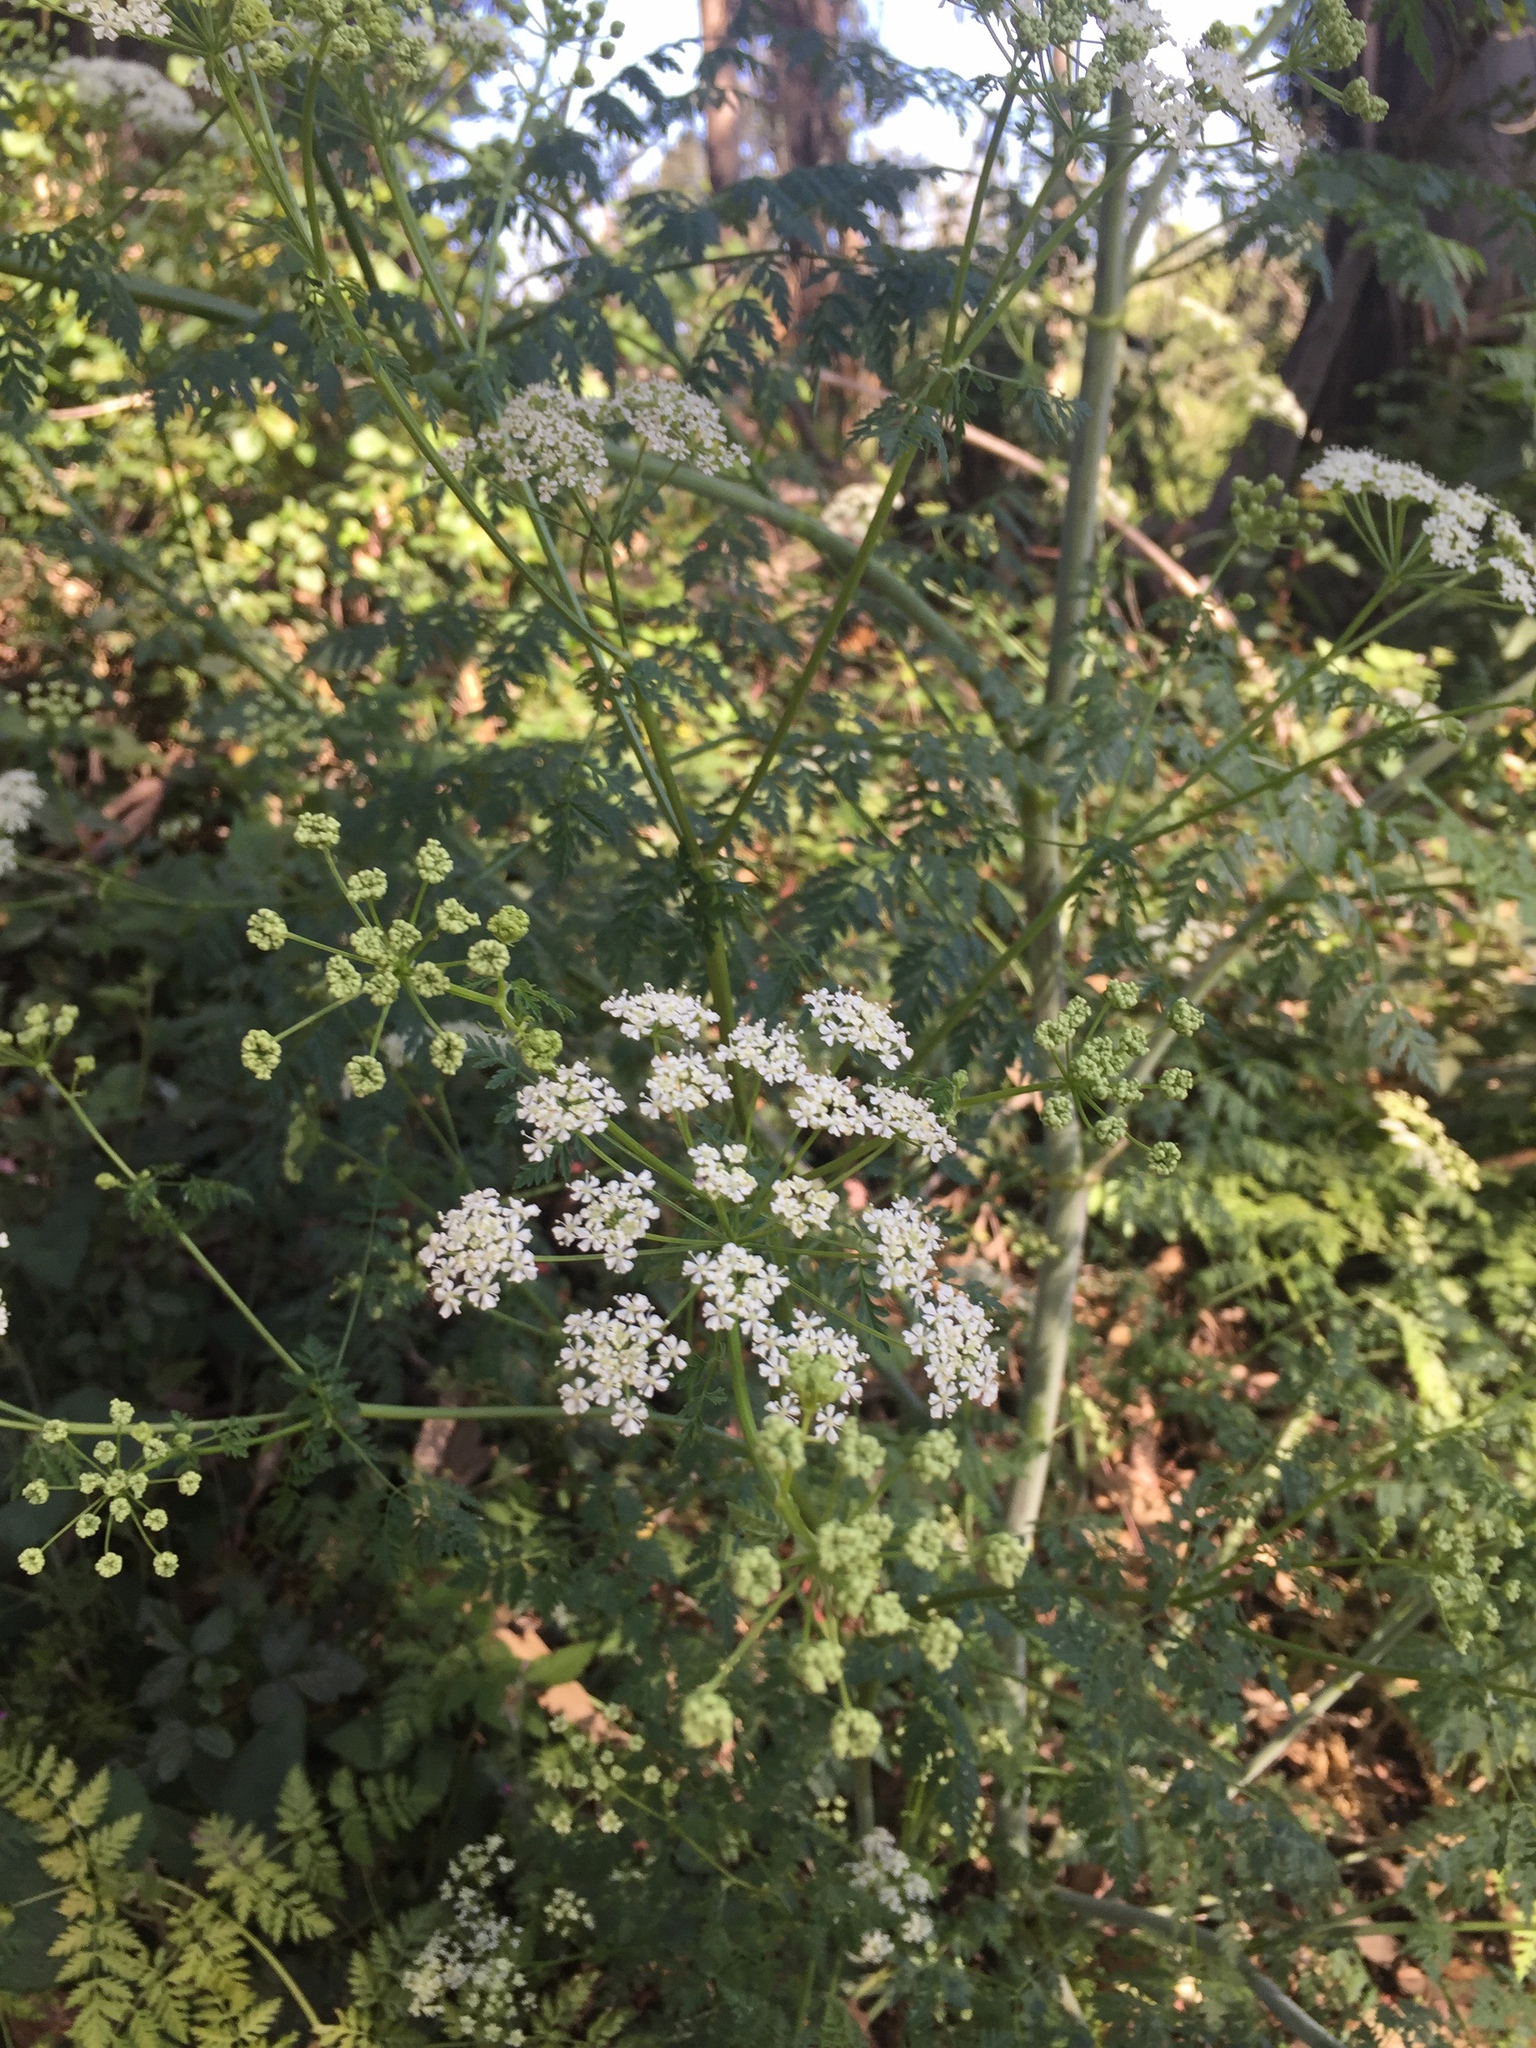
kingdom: Plantae
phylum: Tracheophyta
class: Magnoliopsida
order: Apiales
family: Apiaceae
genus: Conium
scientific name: Conium maculatum
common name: Hemlock
